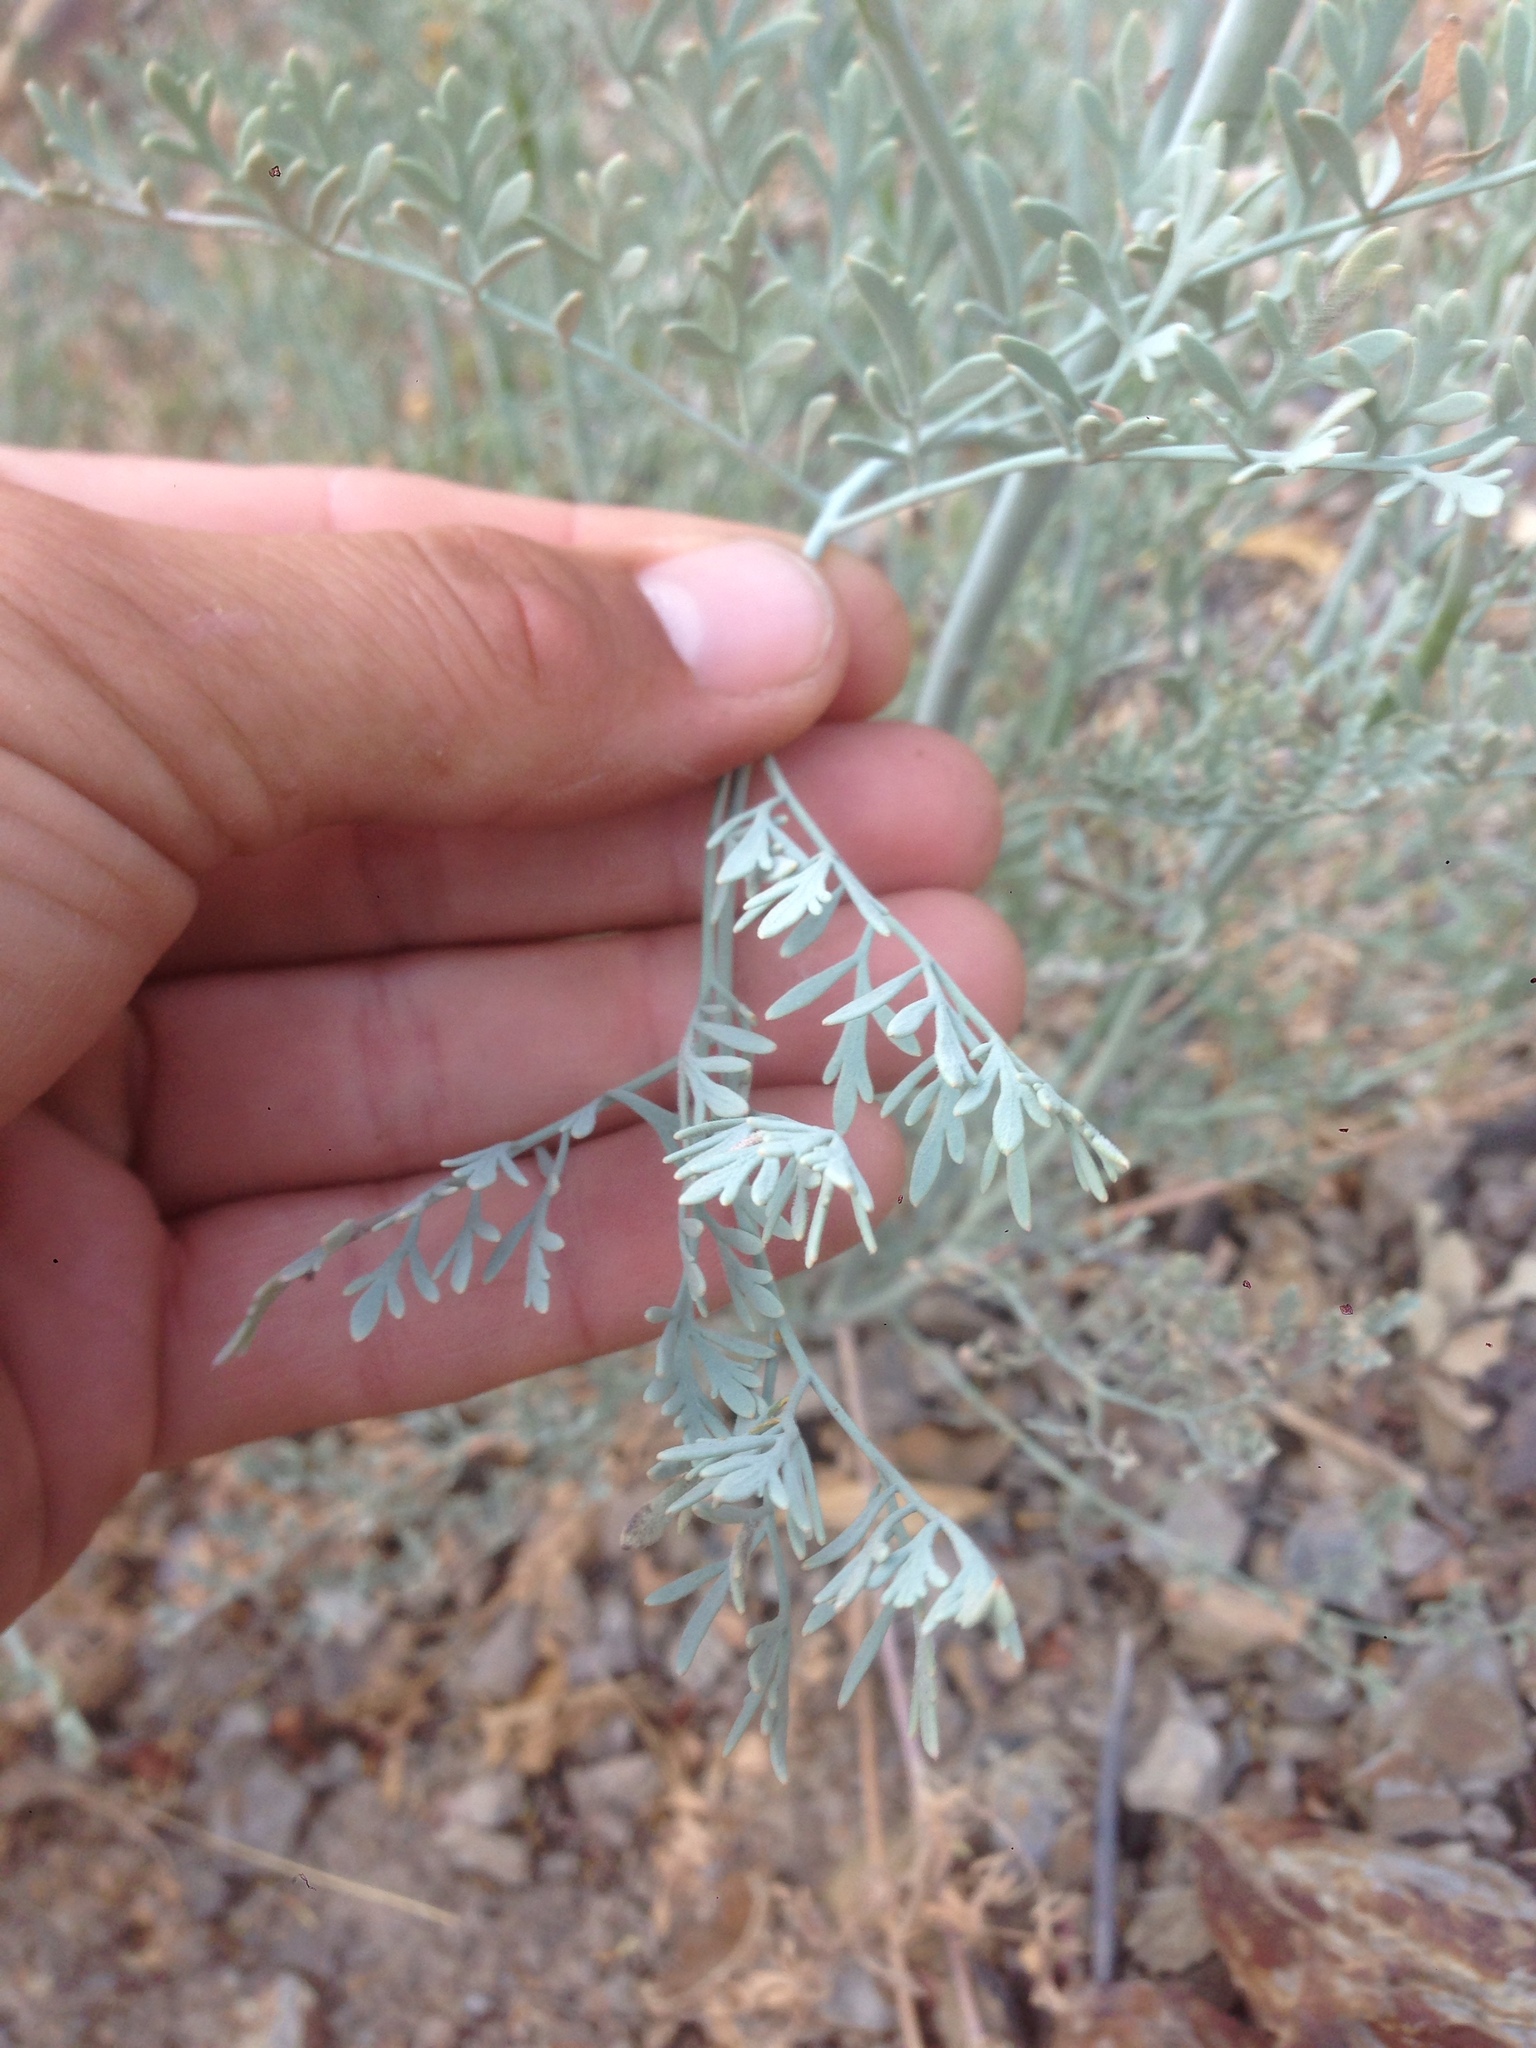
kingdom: Plantae
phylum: Tracheophyta
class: Magnoliopsida
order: Ranunculales
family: Papaveraceae
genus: Ehrendorferia
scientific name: Ehrendorferia chrysantha
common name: Golden eardrops
